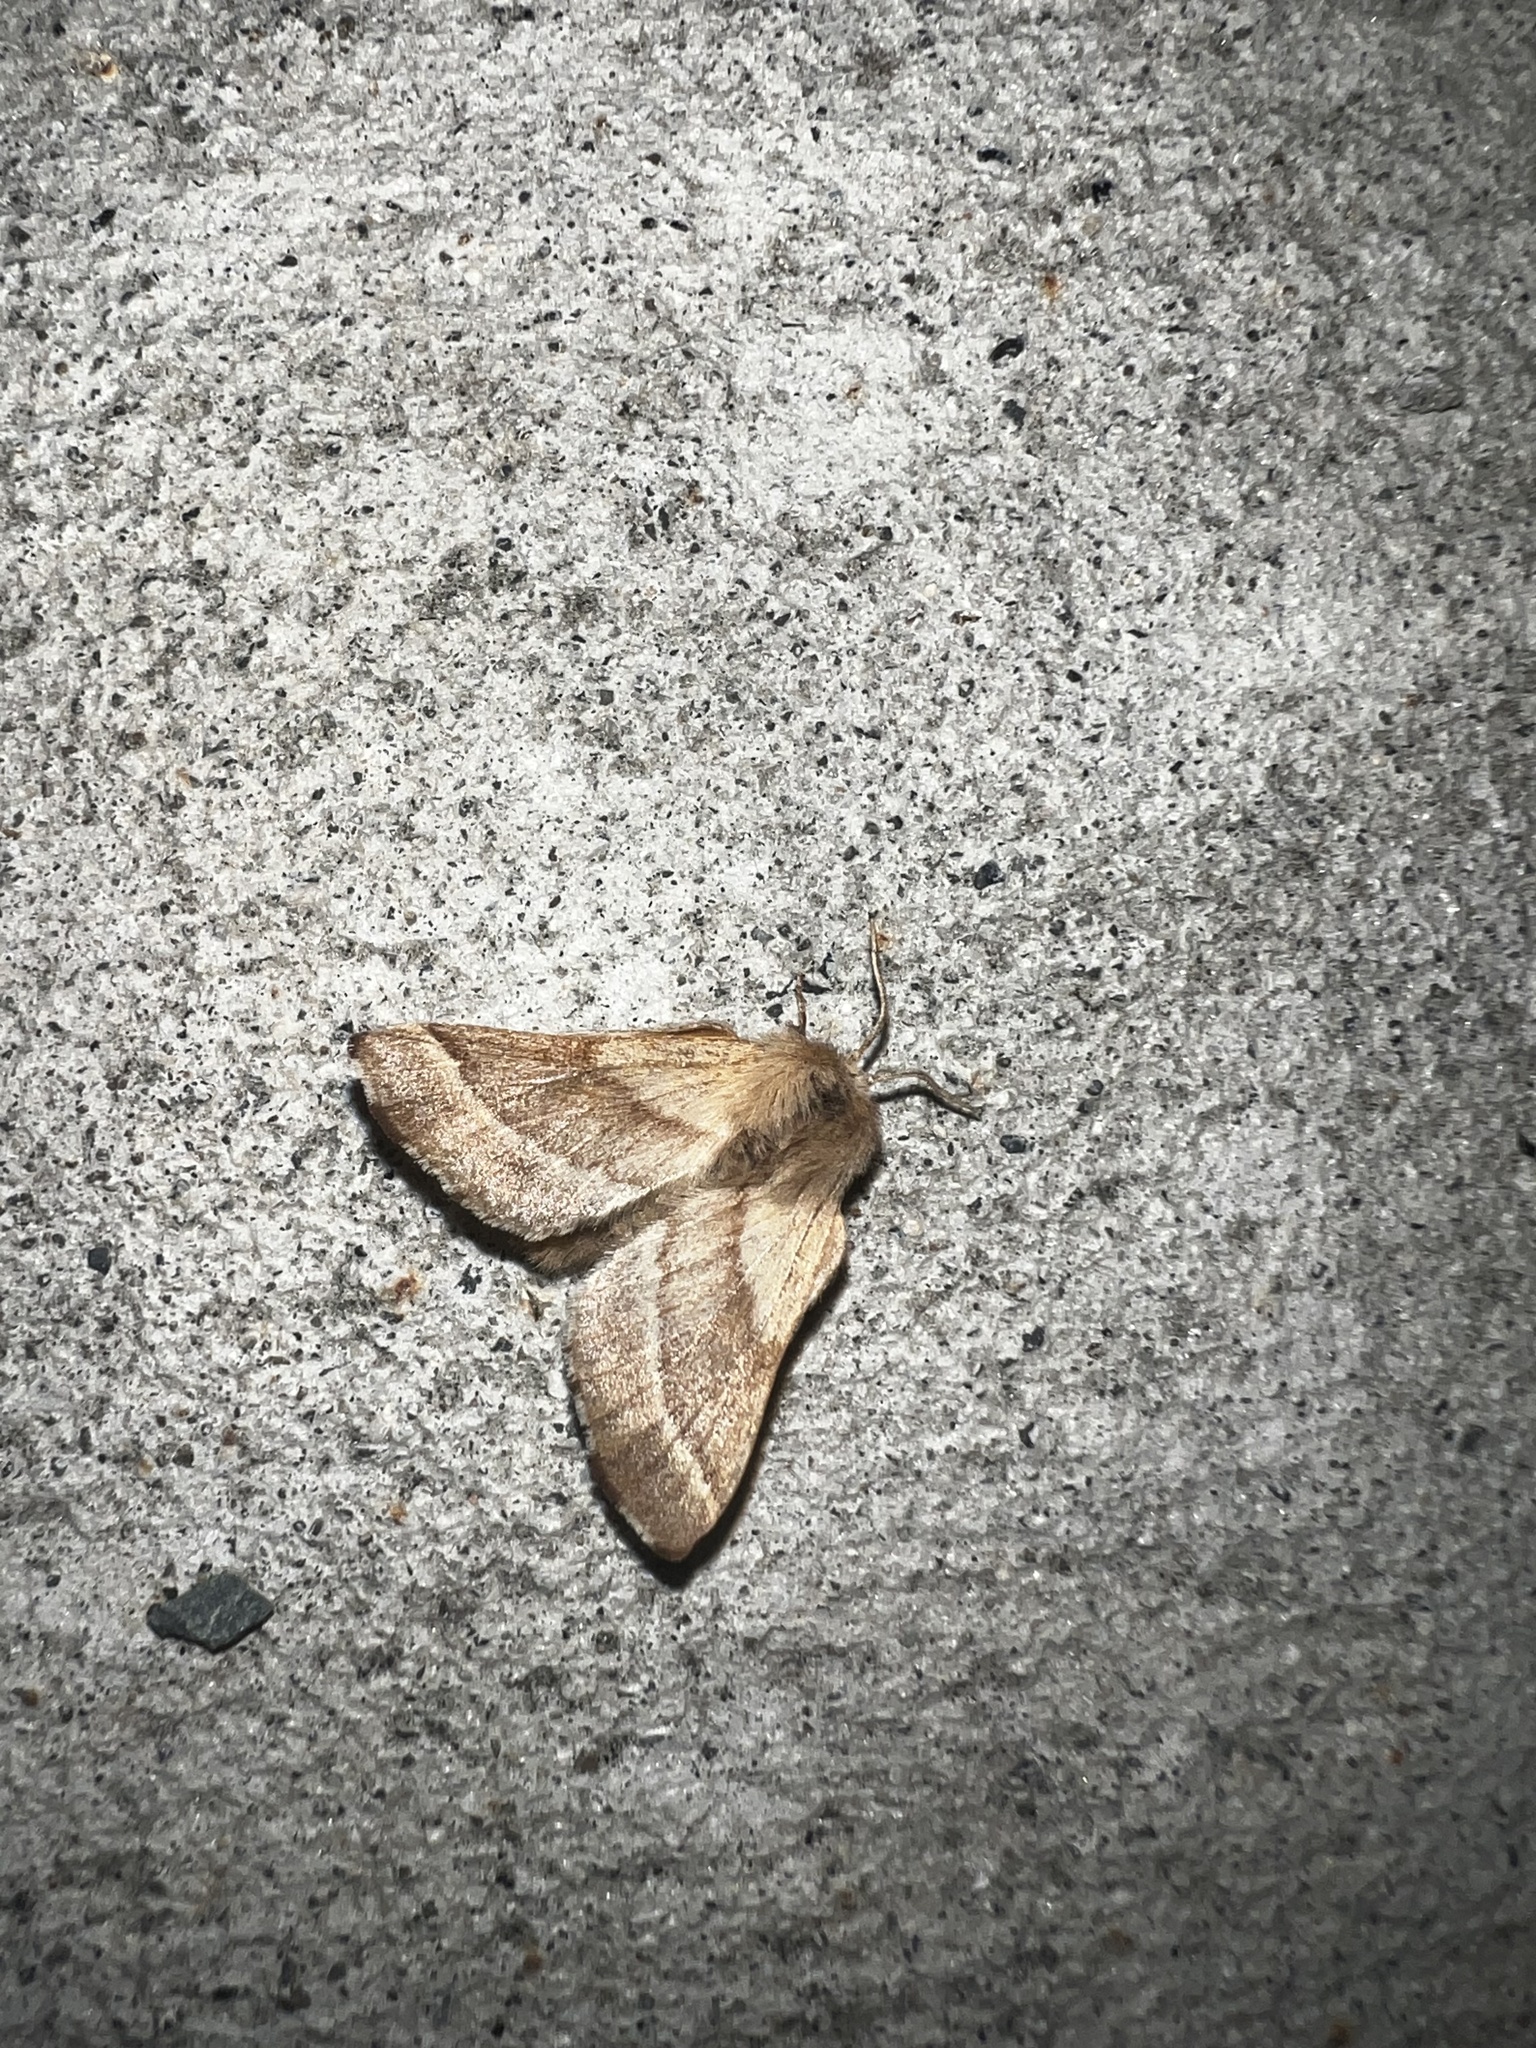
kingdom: Animalia
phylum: Arthropoda
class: Insecta
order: Lepidoptera
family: Lasiocampidae
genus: Malacosoma
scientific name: Malacosoma californica
